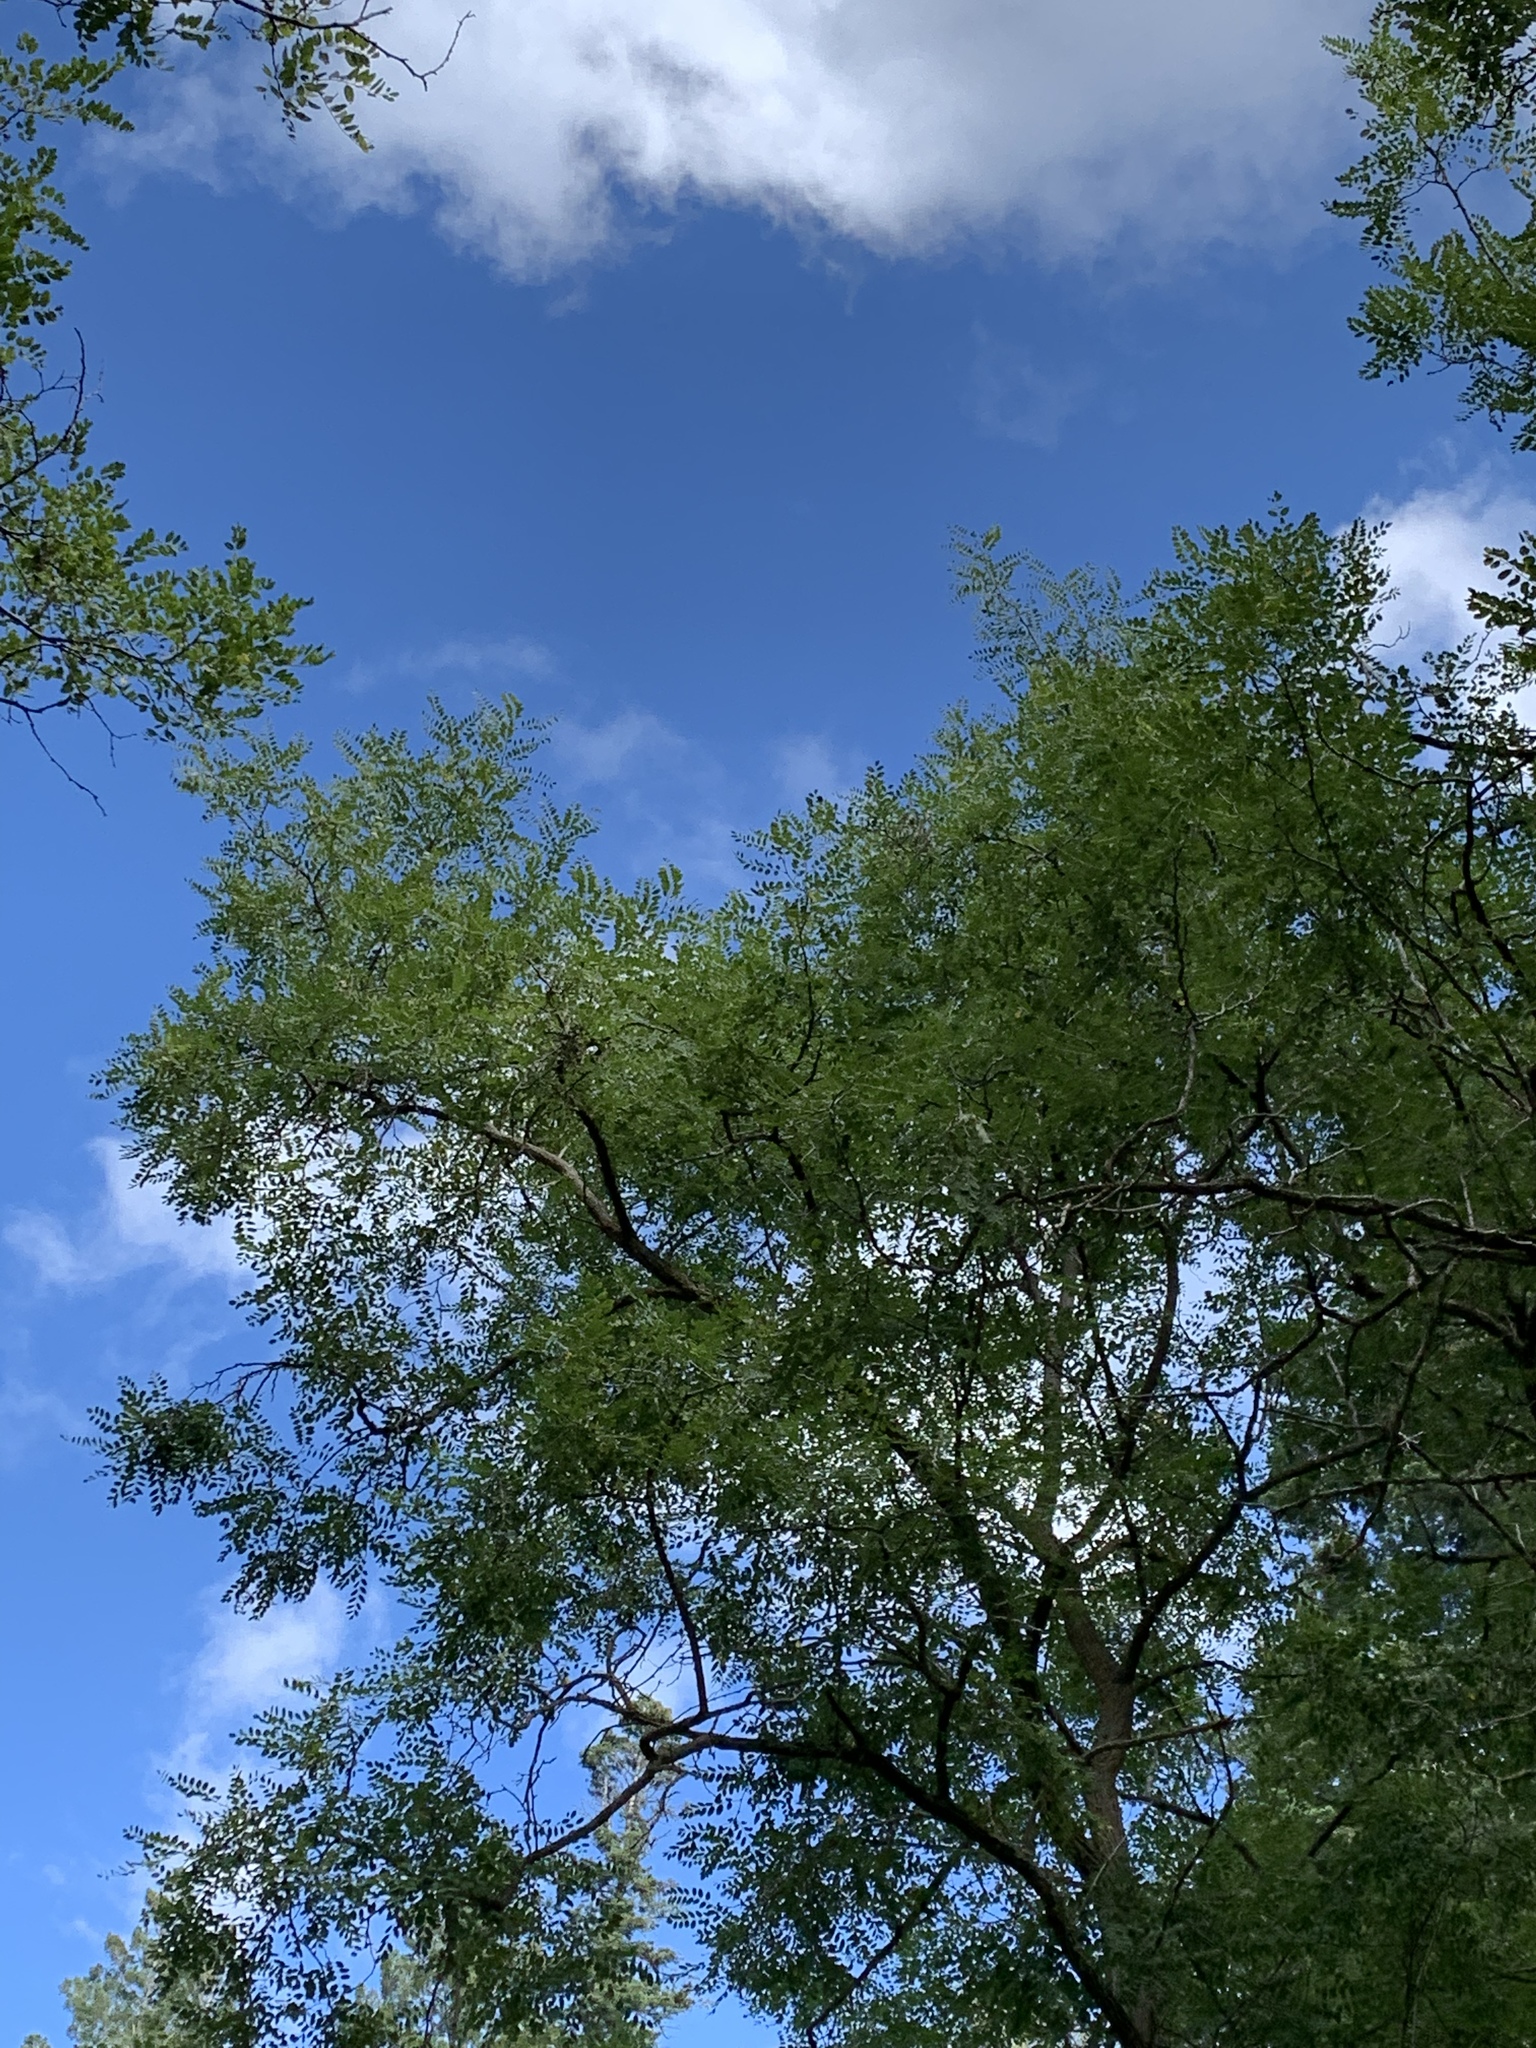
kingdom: Plantae
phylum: Tracheophyta
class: Magnoliopsida
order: Fabales
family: Fabaceae
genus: Robinia
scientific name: Robinia neomexicana
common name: New mexico locust
